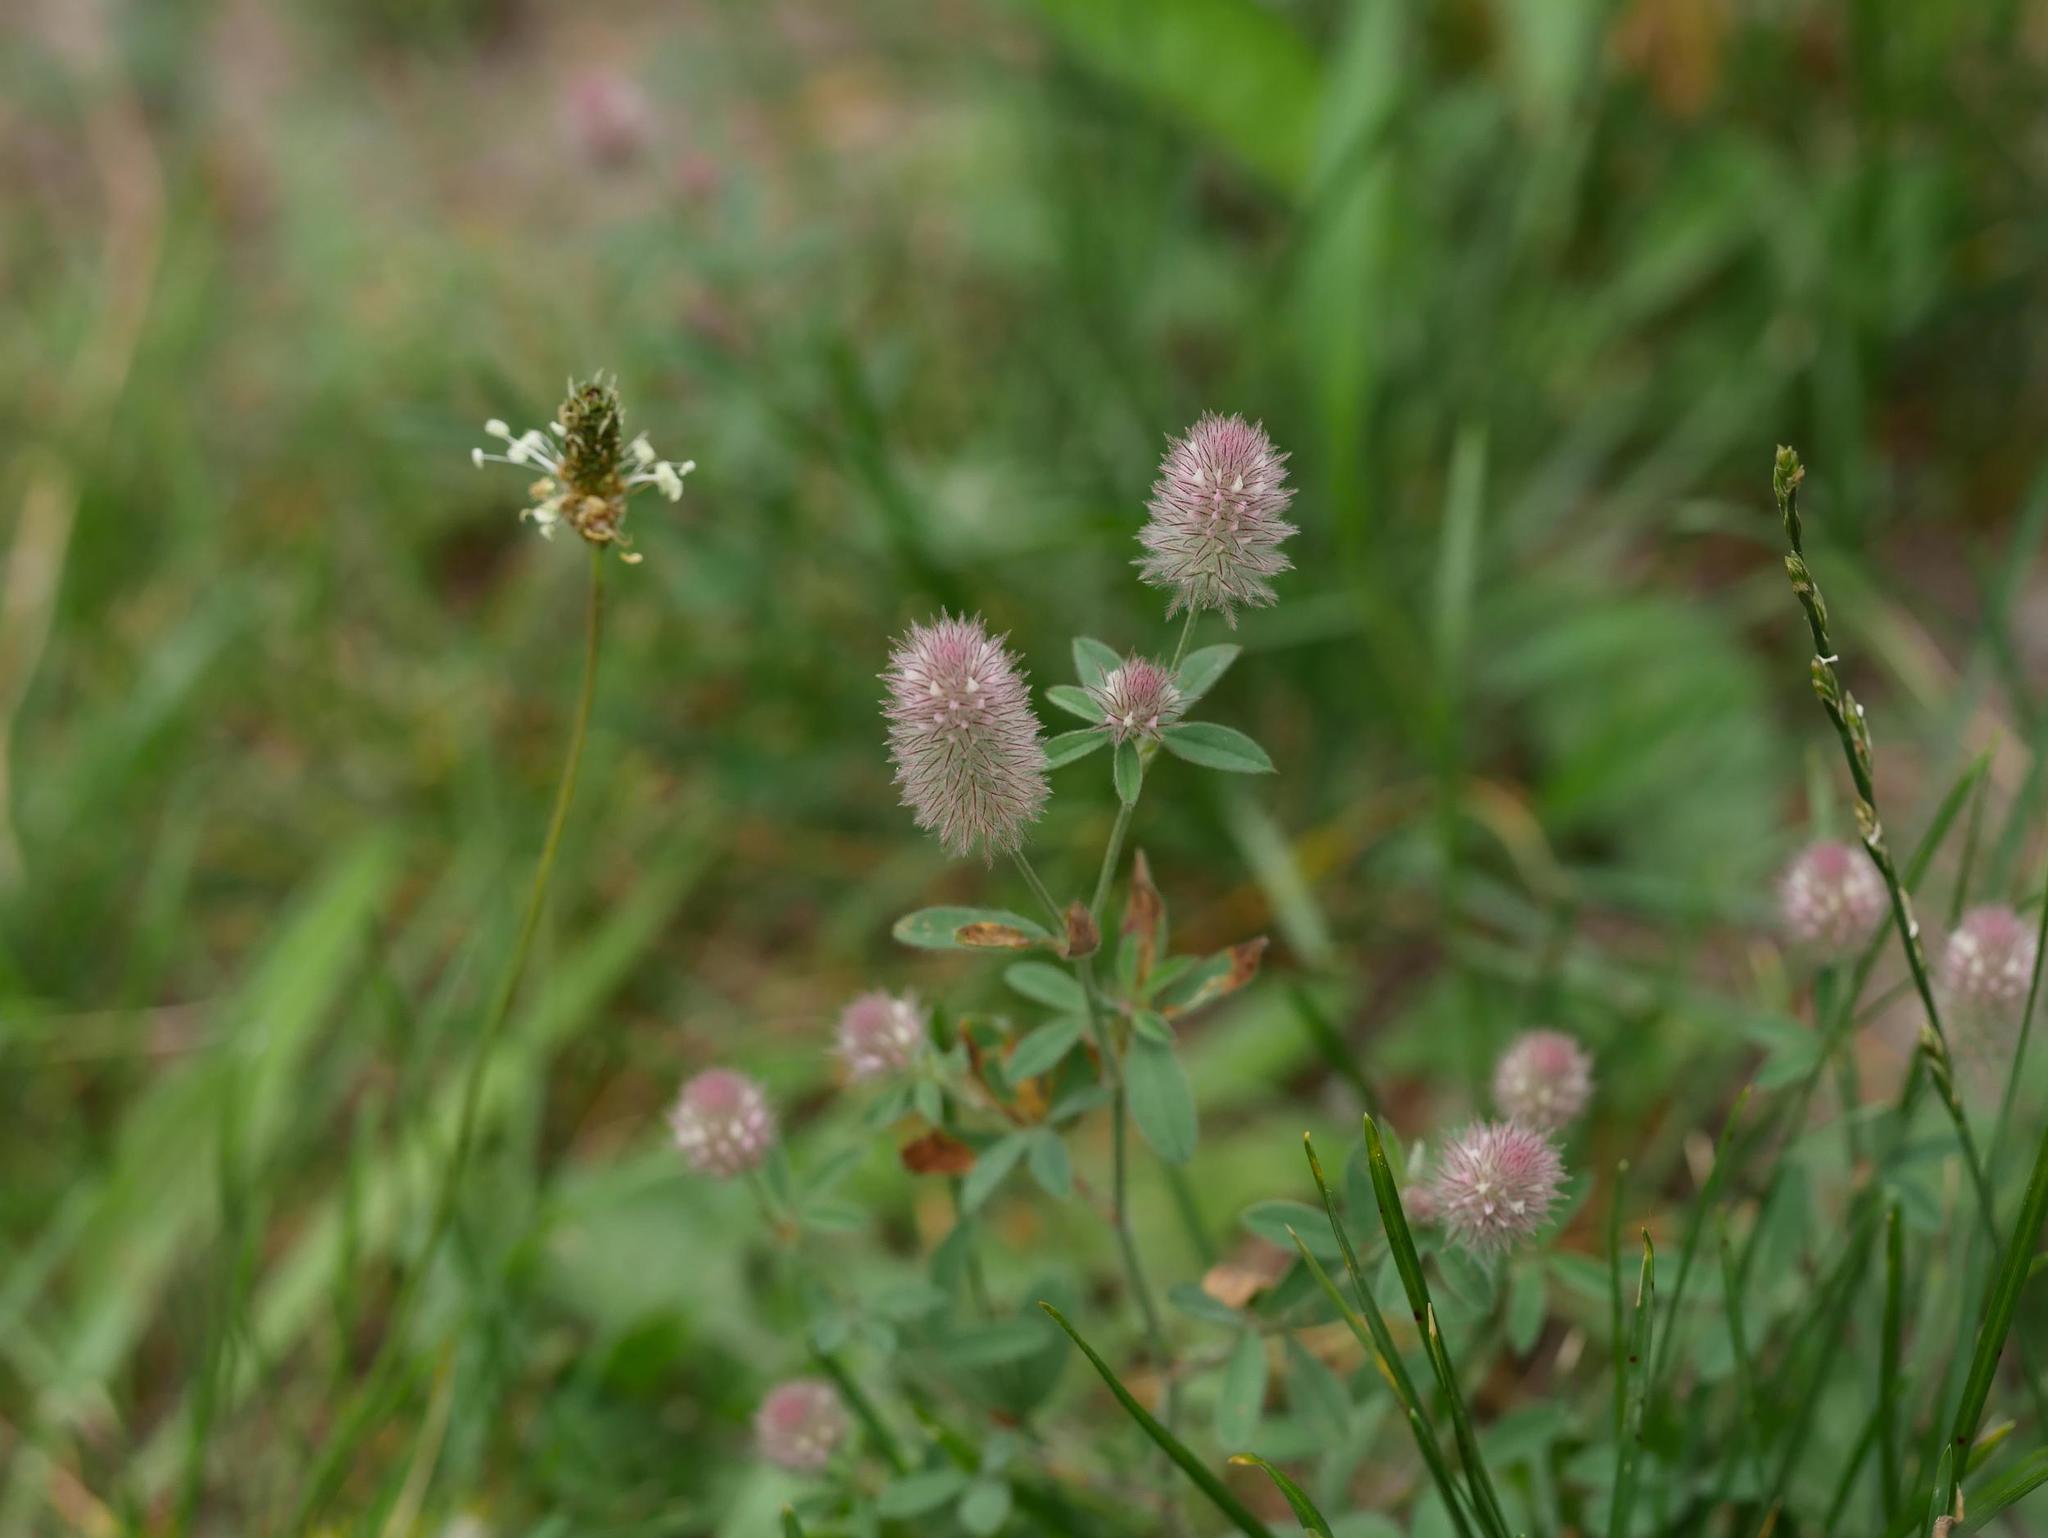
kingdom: Plantae
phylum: Tracheophyta
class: Magnoliopsida
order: Fabales
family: Fabaceae
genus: Trifolium
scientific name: Trifolium arvense
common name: Hare's-foot clover
